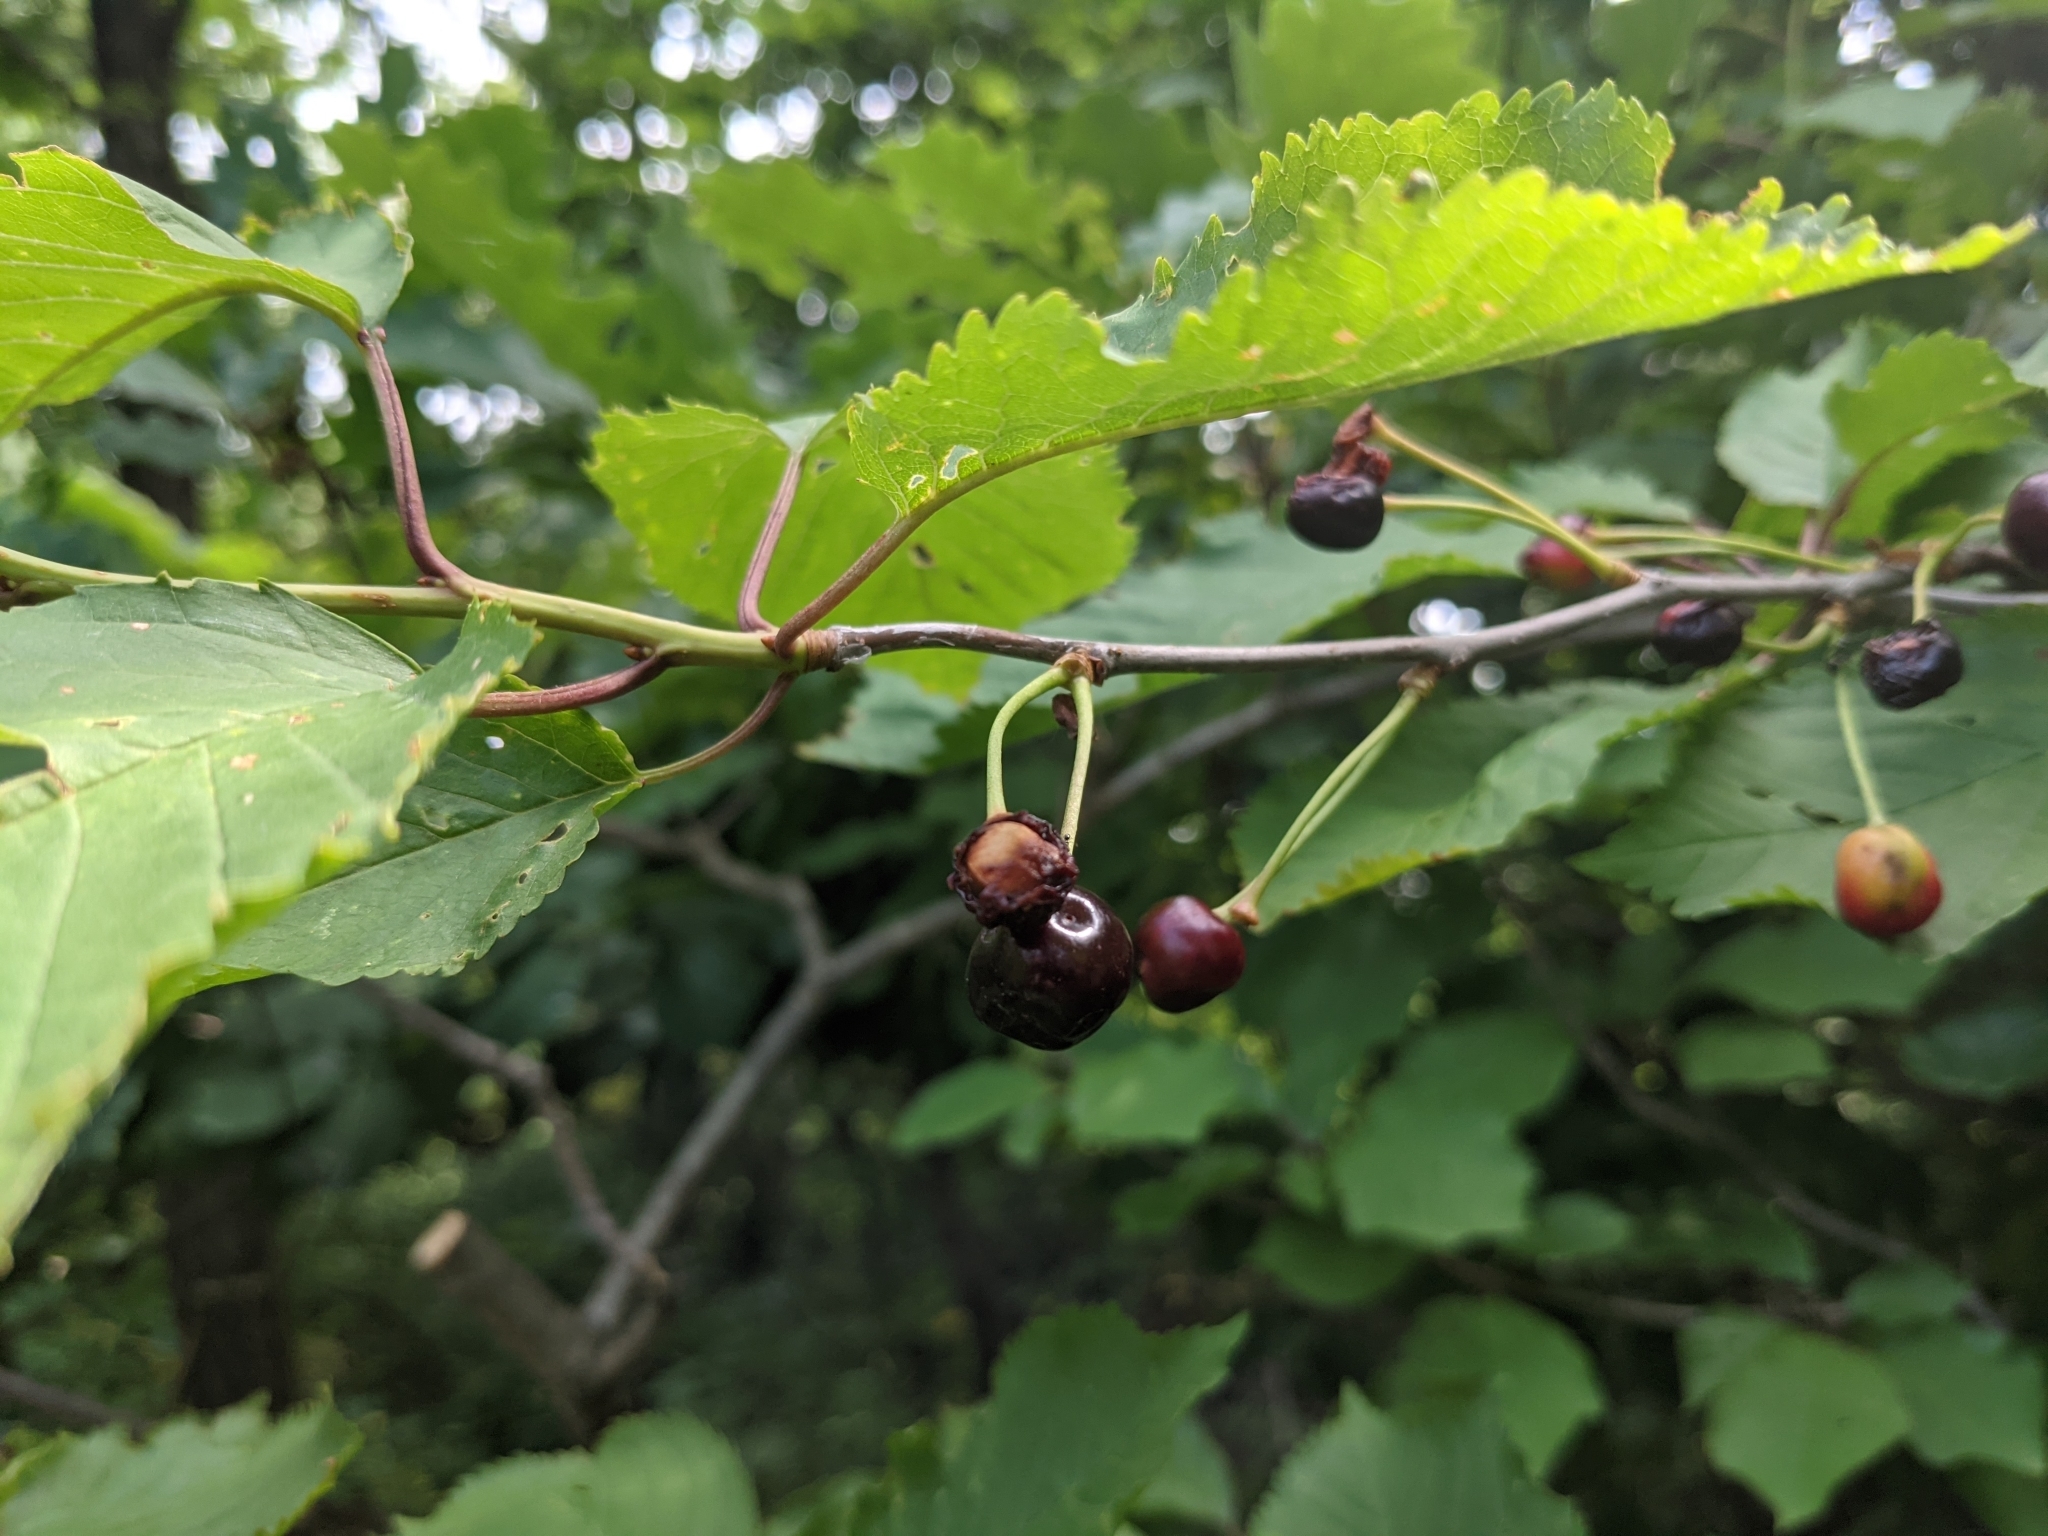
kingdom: Plantae
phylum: Tracheophyta
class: Magnoliopsida
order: Rosales
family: Rosaceae
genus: Prunus
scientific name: Prunus avium
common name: Sweet cherry
